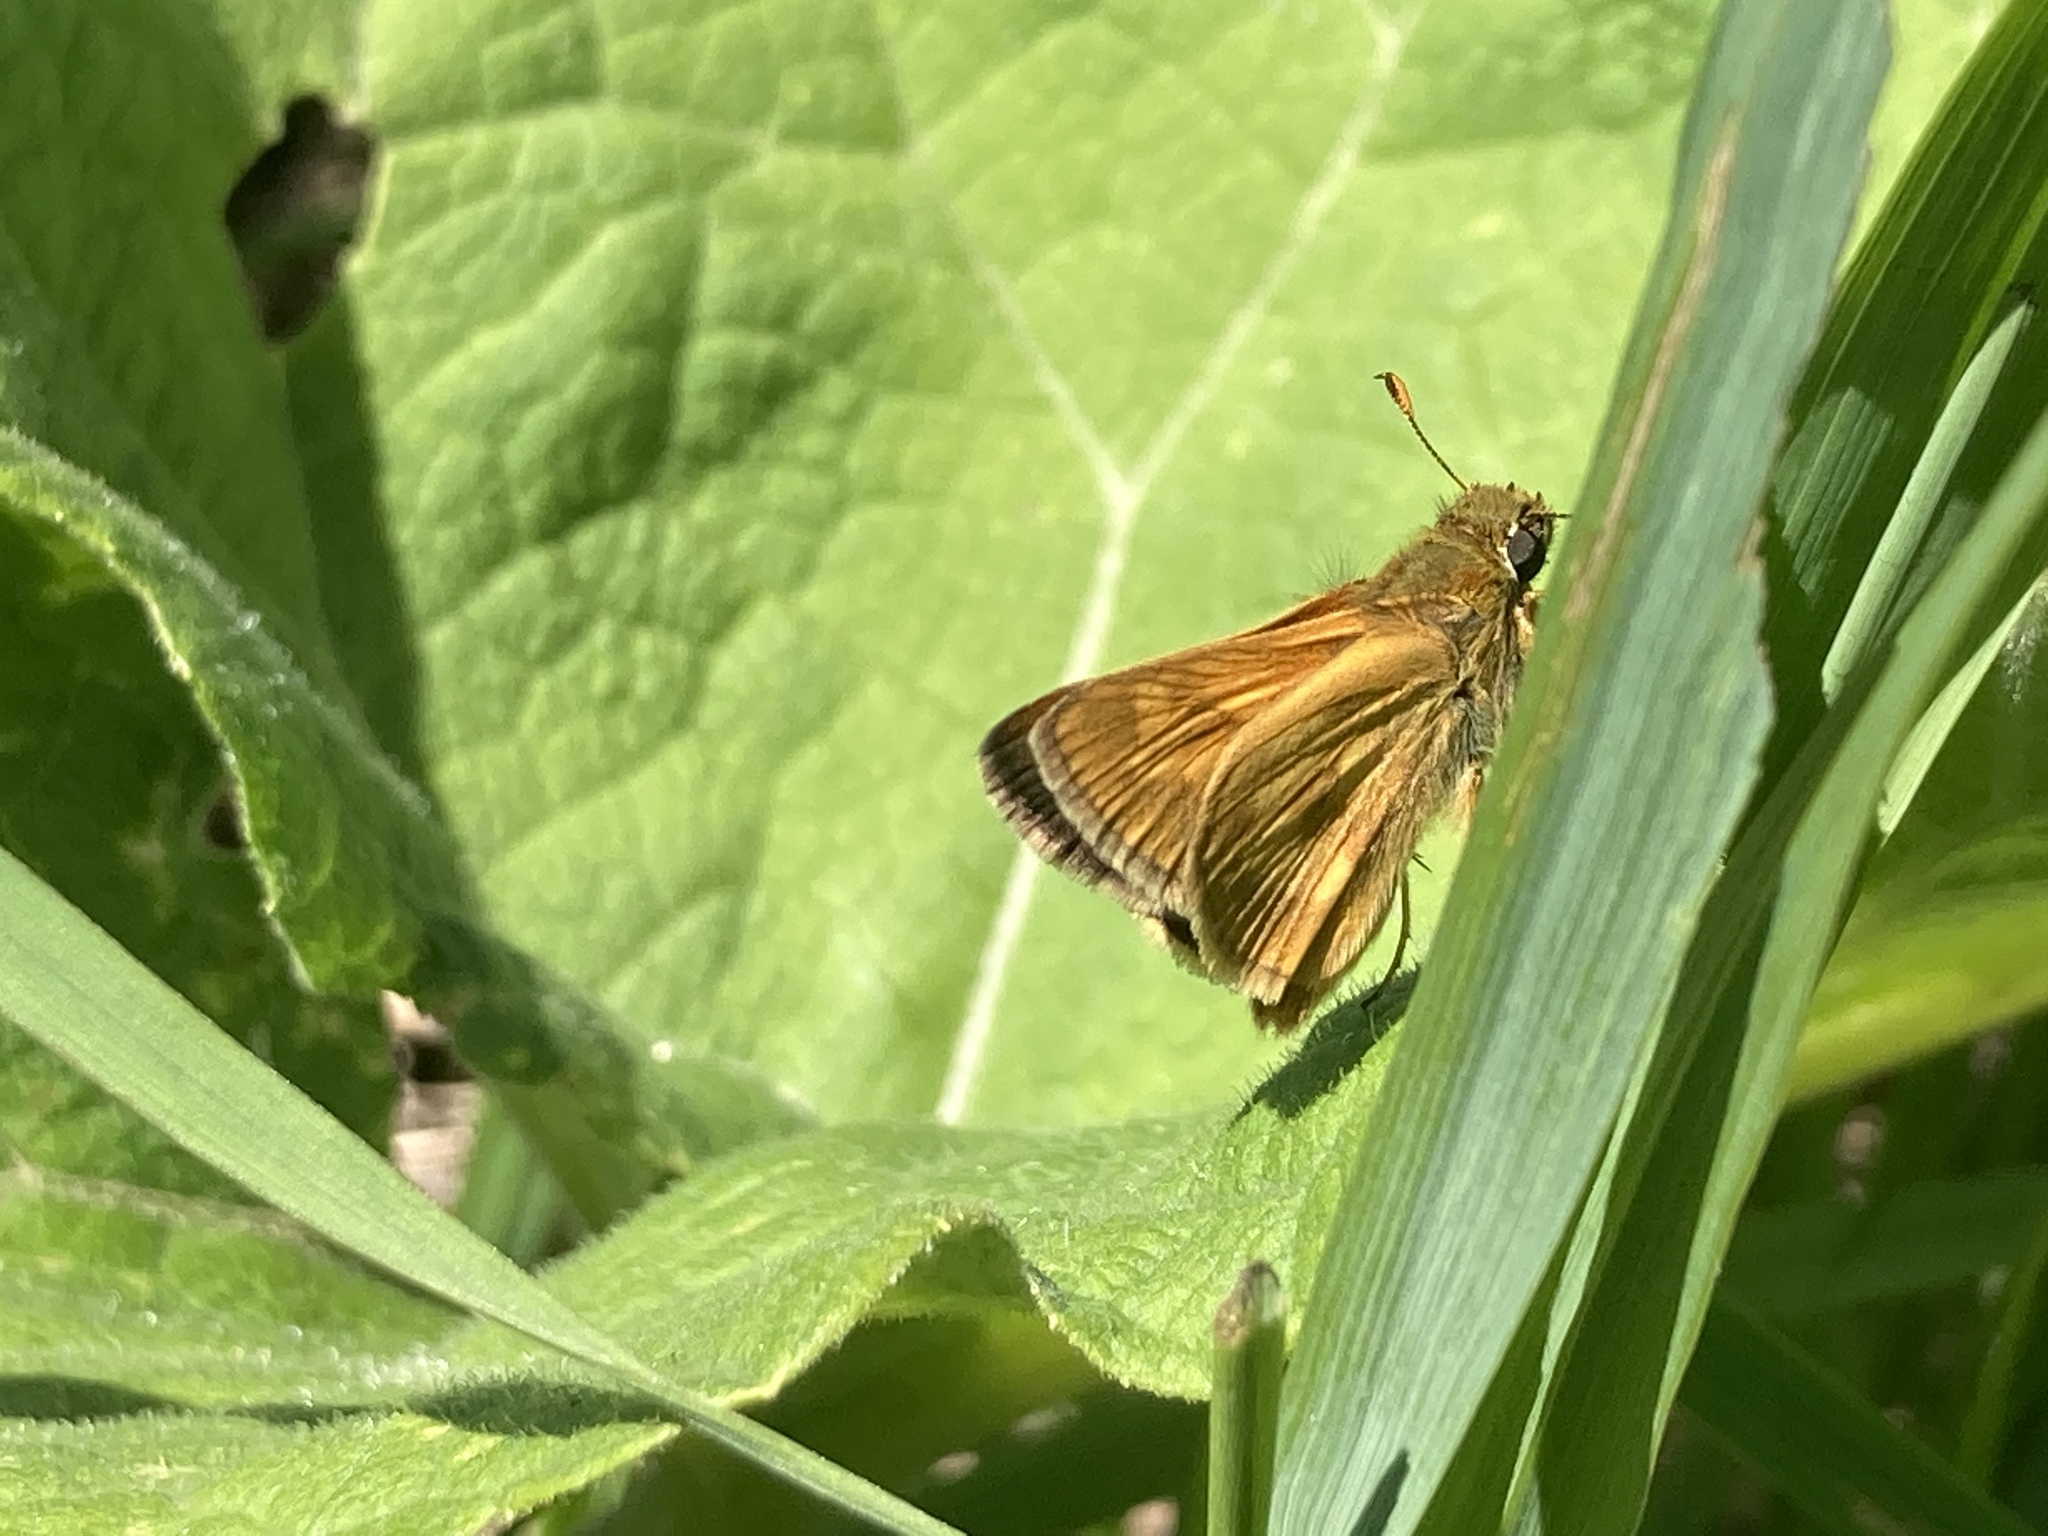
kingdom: Animalia
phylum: Arthropoda
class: Insecta
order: Lepidoptera
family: Hesperiidae
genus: Polites
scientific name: Polites mystic
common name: Long dash
